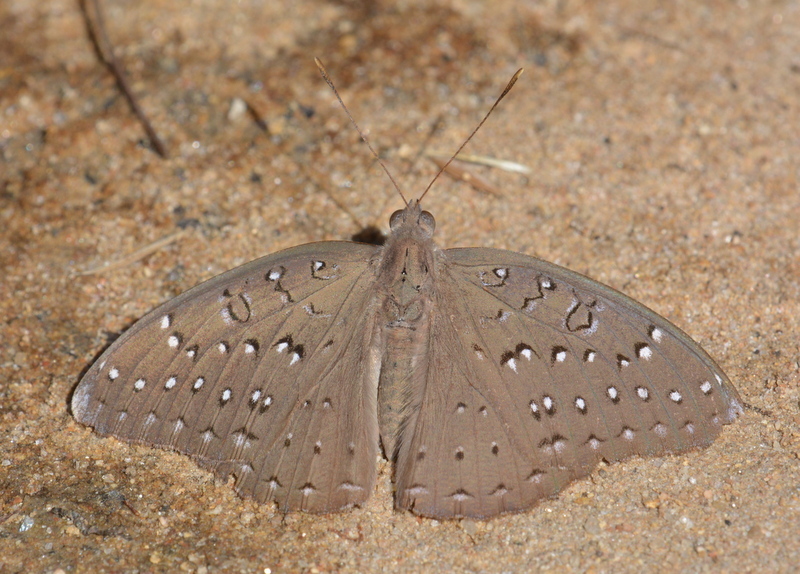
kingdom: Animalia
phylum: Arthropoda
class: Insecta
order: Lepidoptera
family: Nymphalidae
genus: Hamanumida
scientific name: Hamanumida daedalus
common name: Guinea-fowl butterfly
